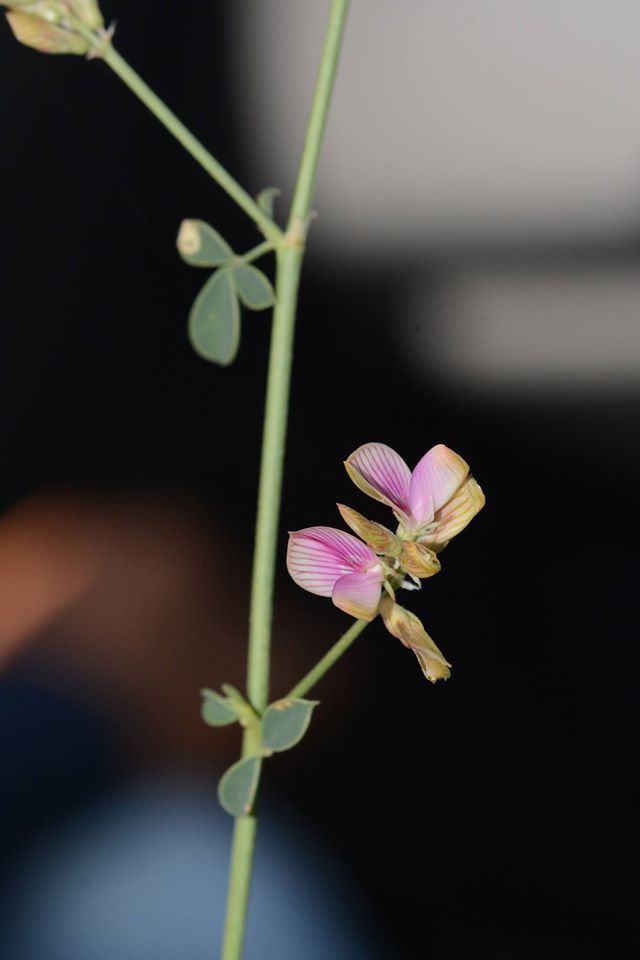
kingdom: Plantae
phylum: Tracheophyta
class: Magnoliopsida
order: Fabales
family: Fabaceae
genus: Taverniera
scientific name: Taverniera cuneifolia
